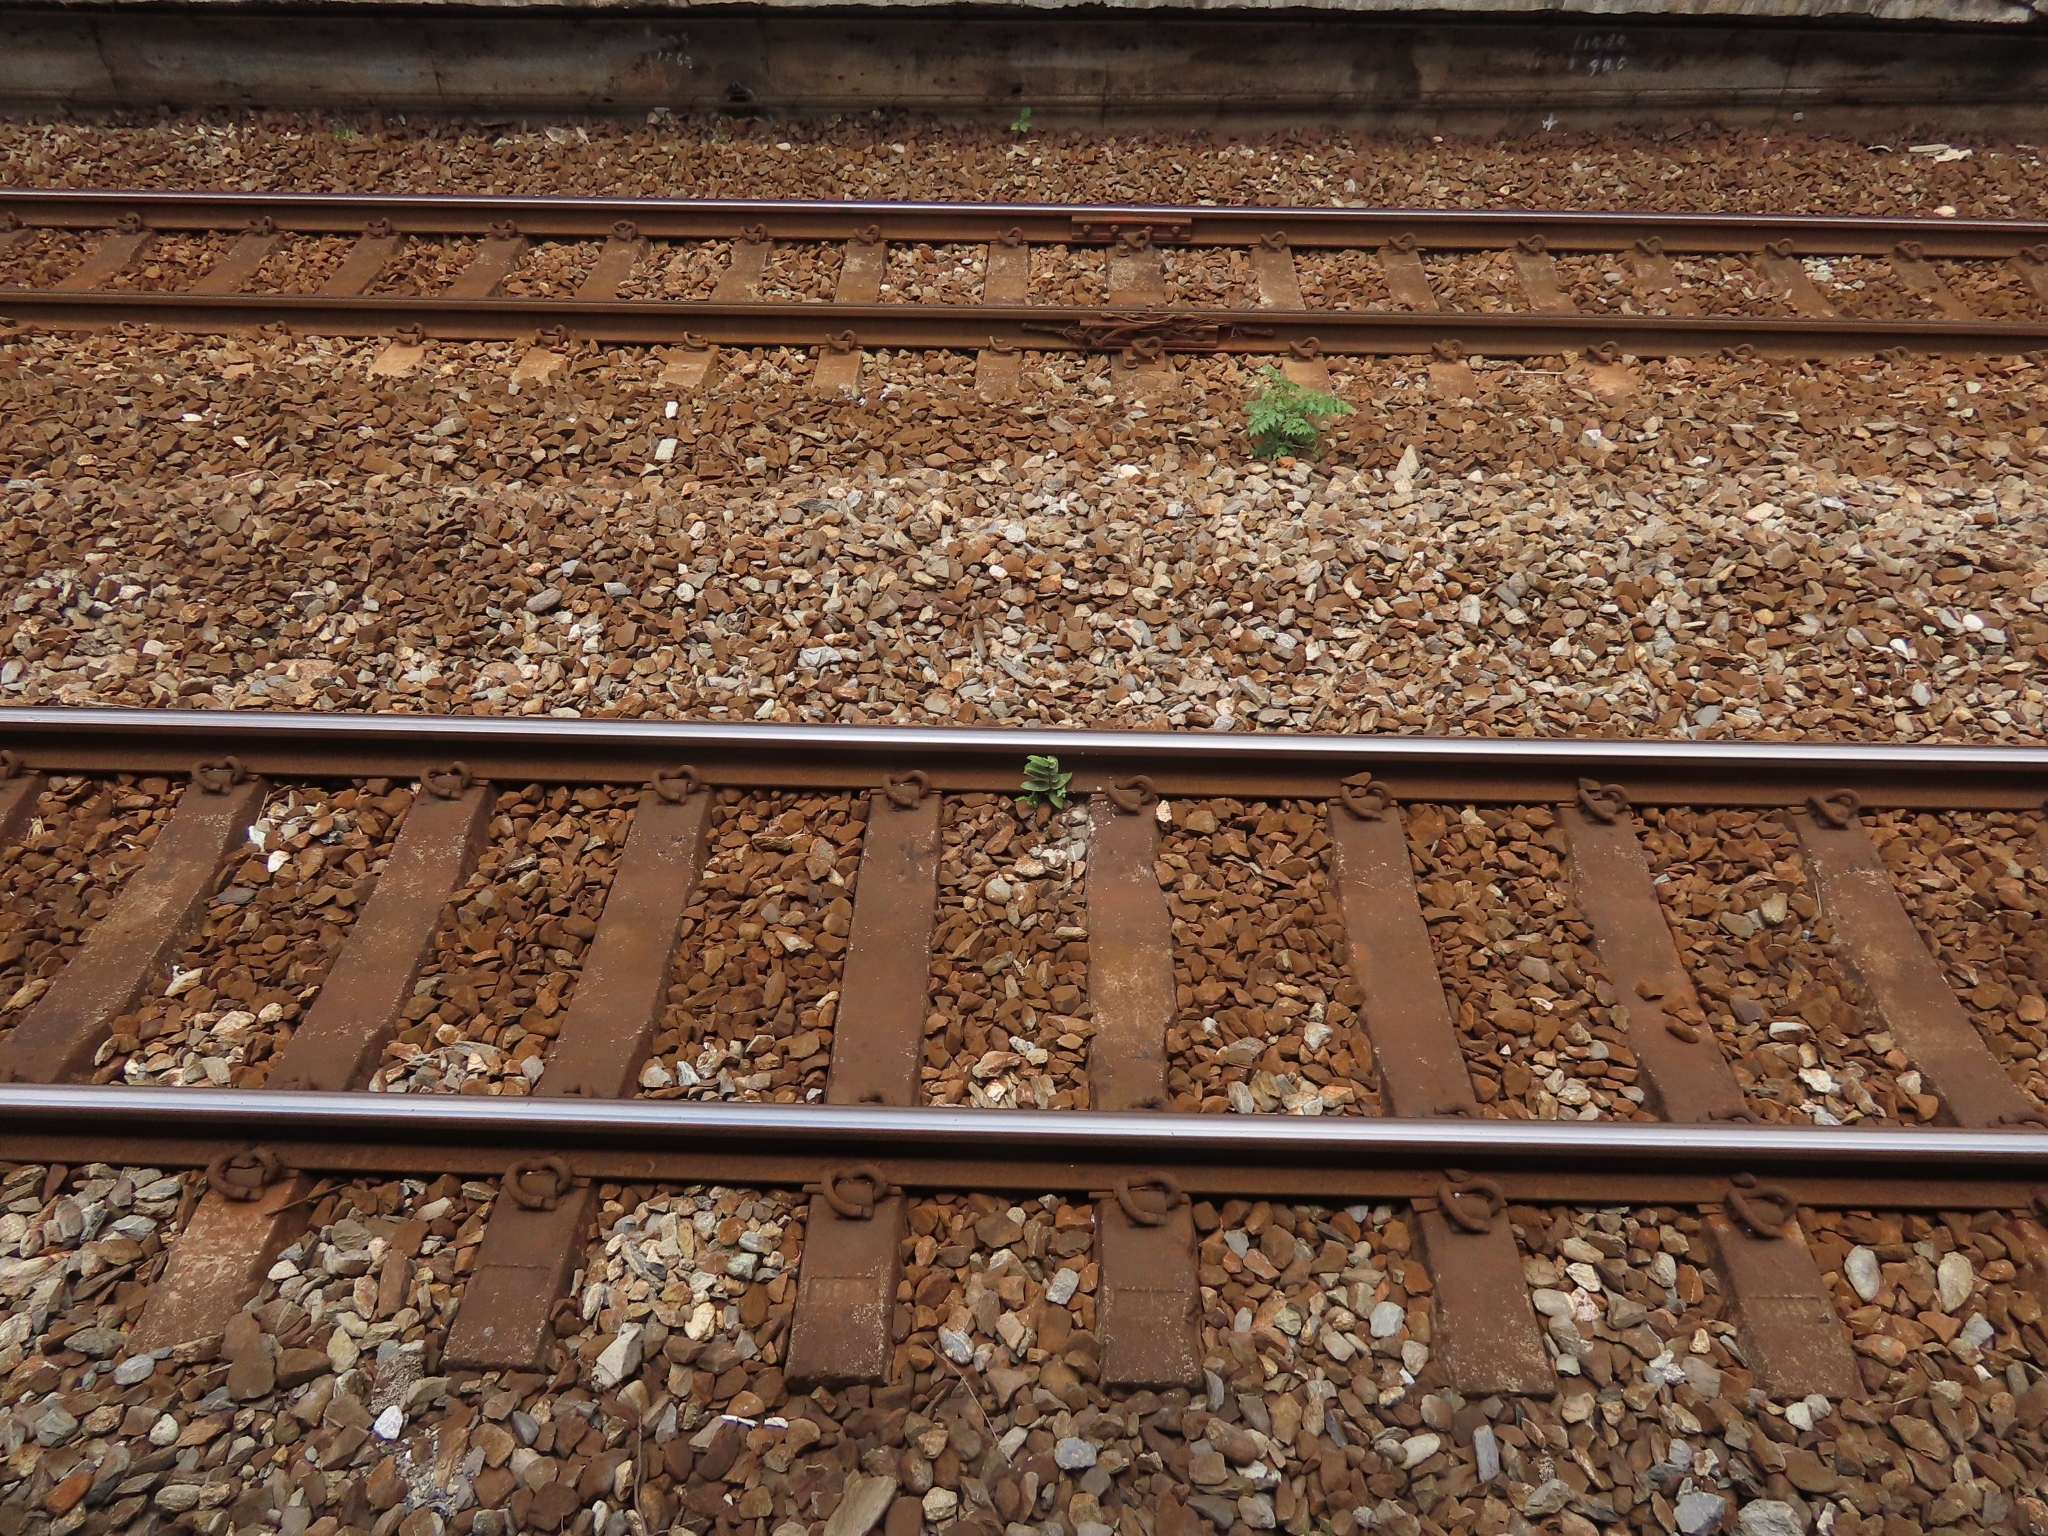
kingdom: Plantae
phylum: Tracheophyta
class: Magnoliopsida
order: Rosales
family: Moraceae
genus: Ficus
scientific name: Ficus virgata
